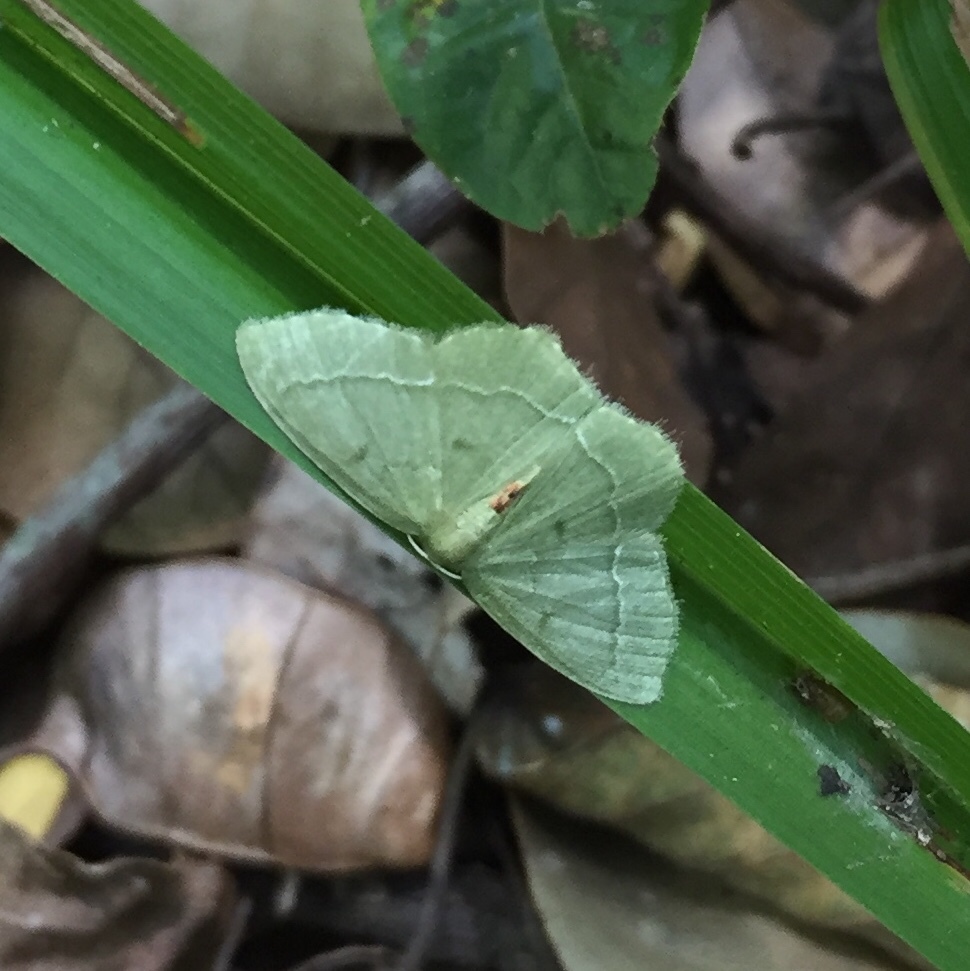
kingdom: Animalia
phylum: Arthropoda
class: Insecta
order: Lepidoptera
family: Geometridae
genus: Chlorissa
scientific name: Chlorissa attenuata
